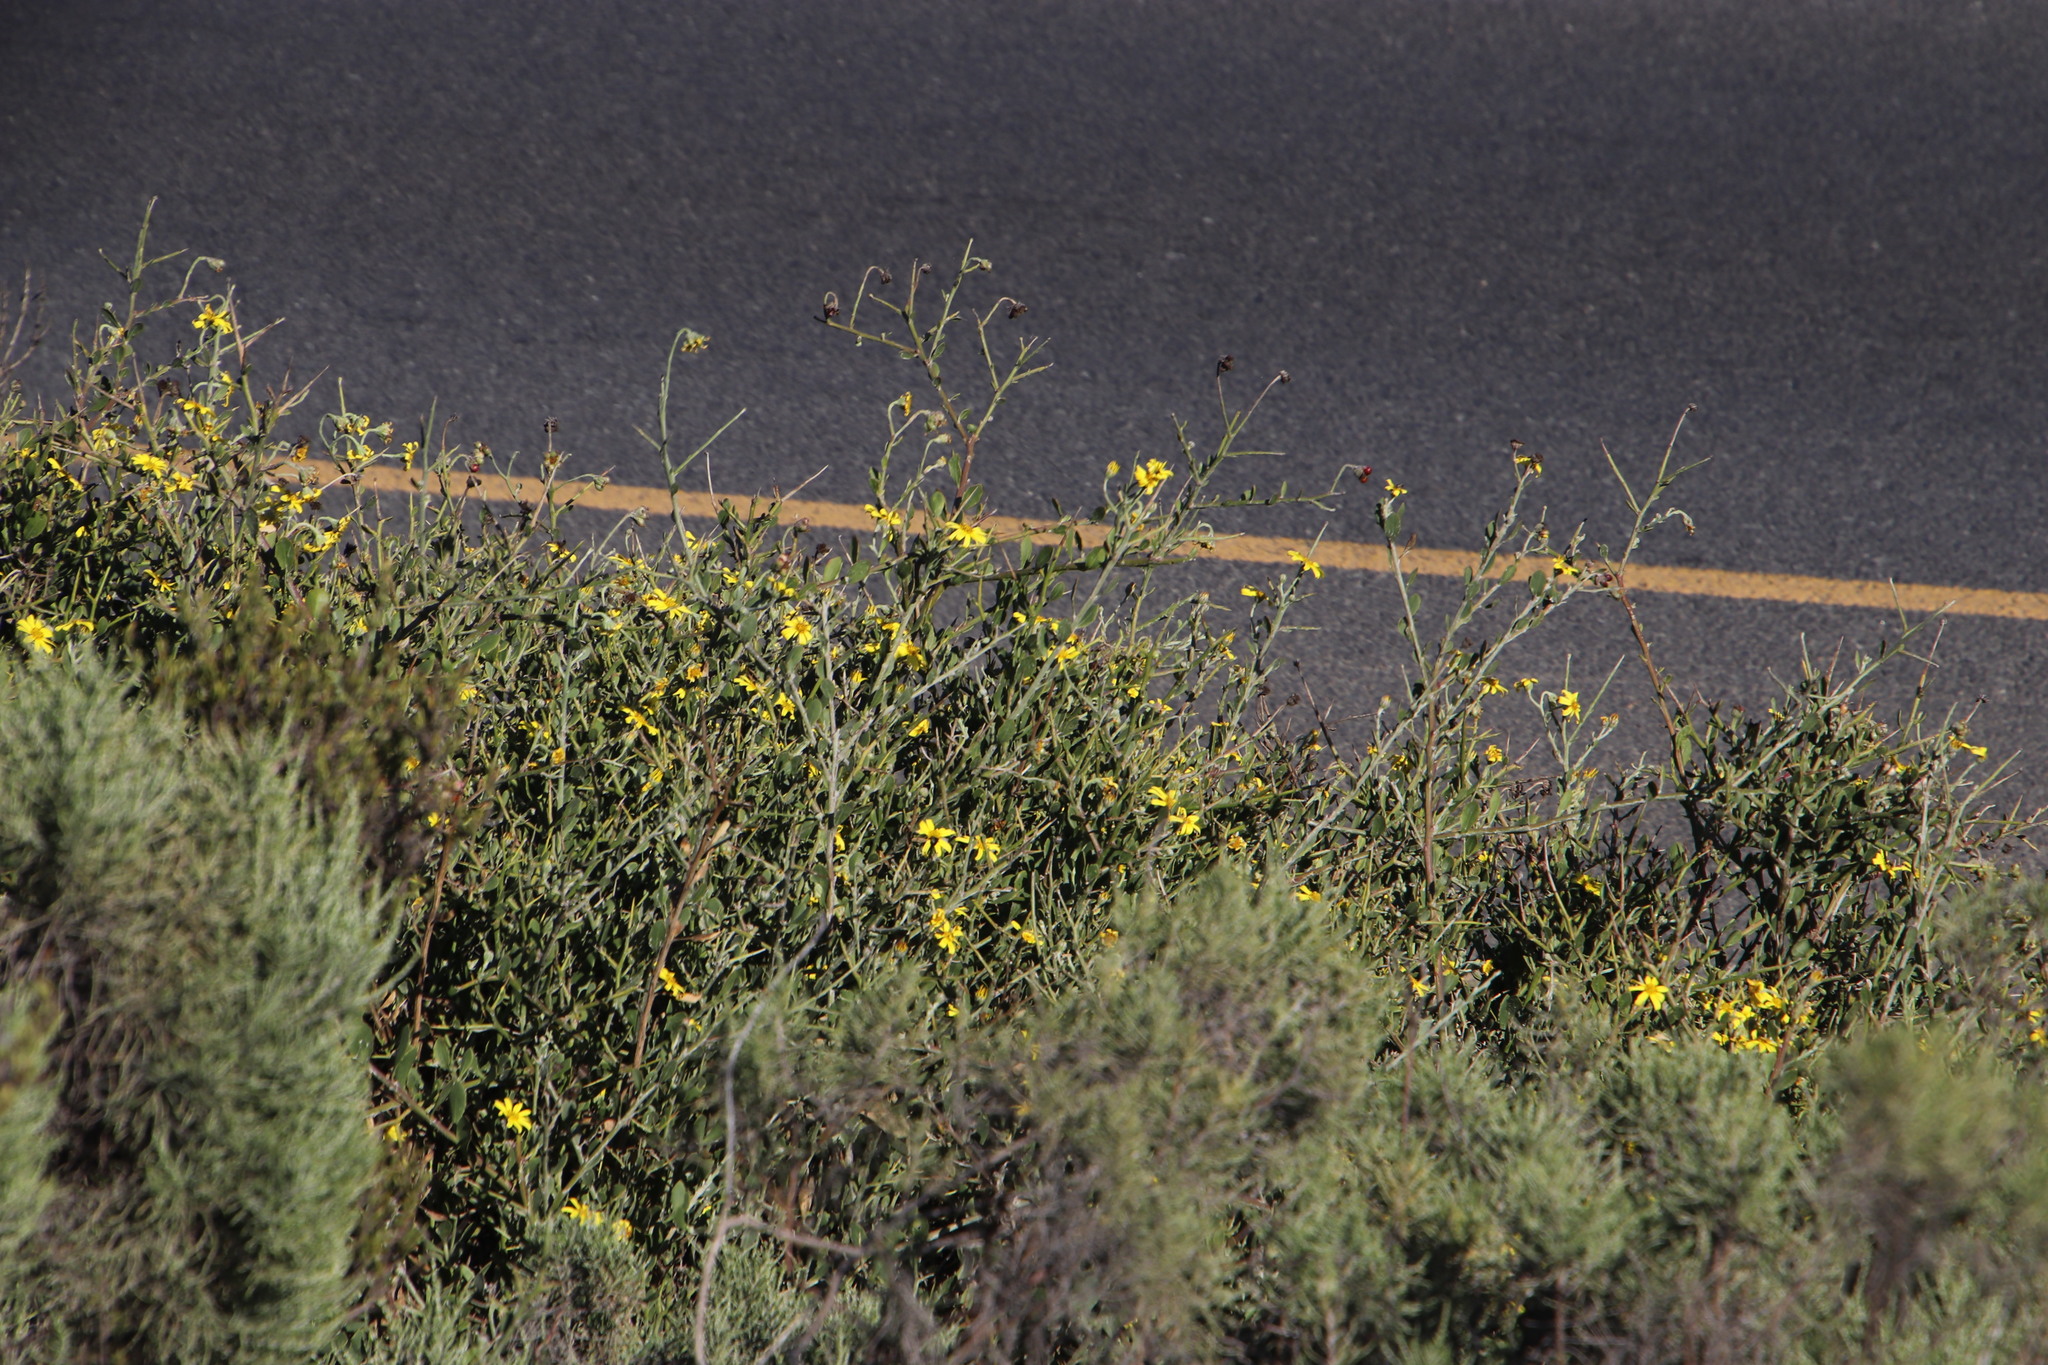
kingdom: Plantae
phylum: Tracheophyta
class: Magnoliopsida
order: Asterales
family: Asteraceae
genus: Osteospermum
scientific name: Osteospermum incanum
